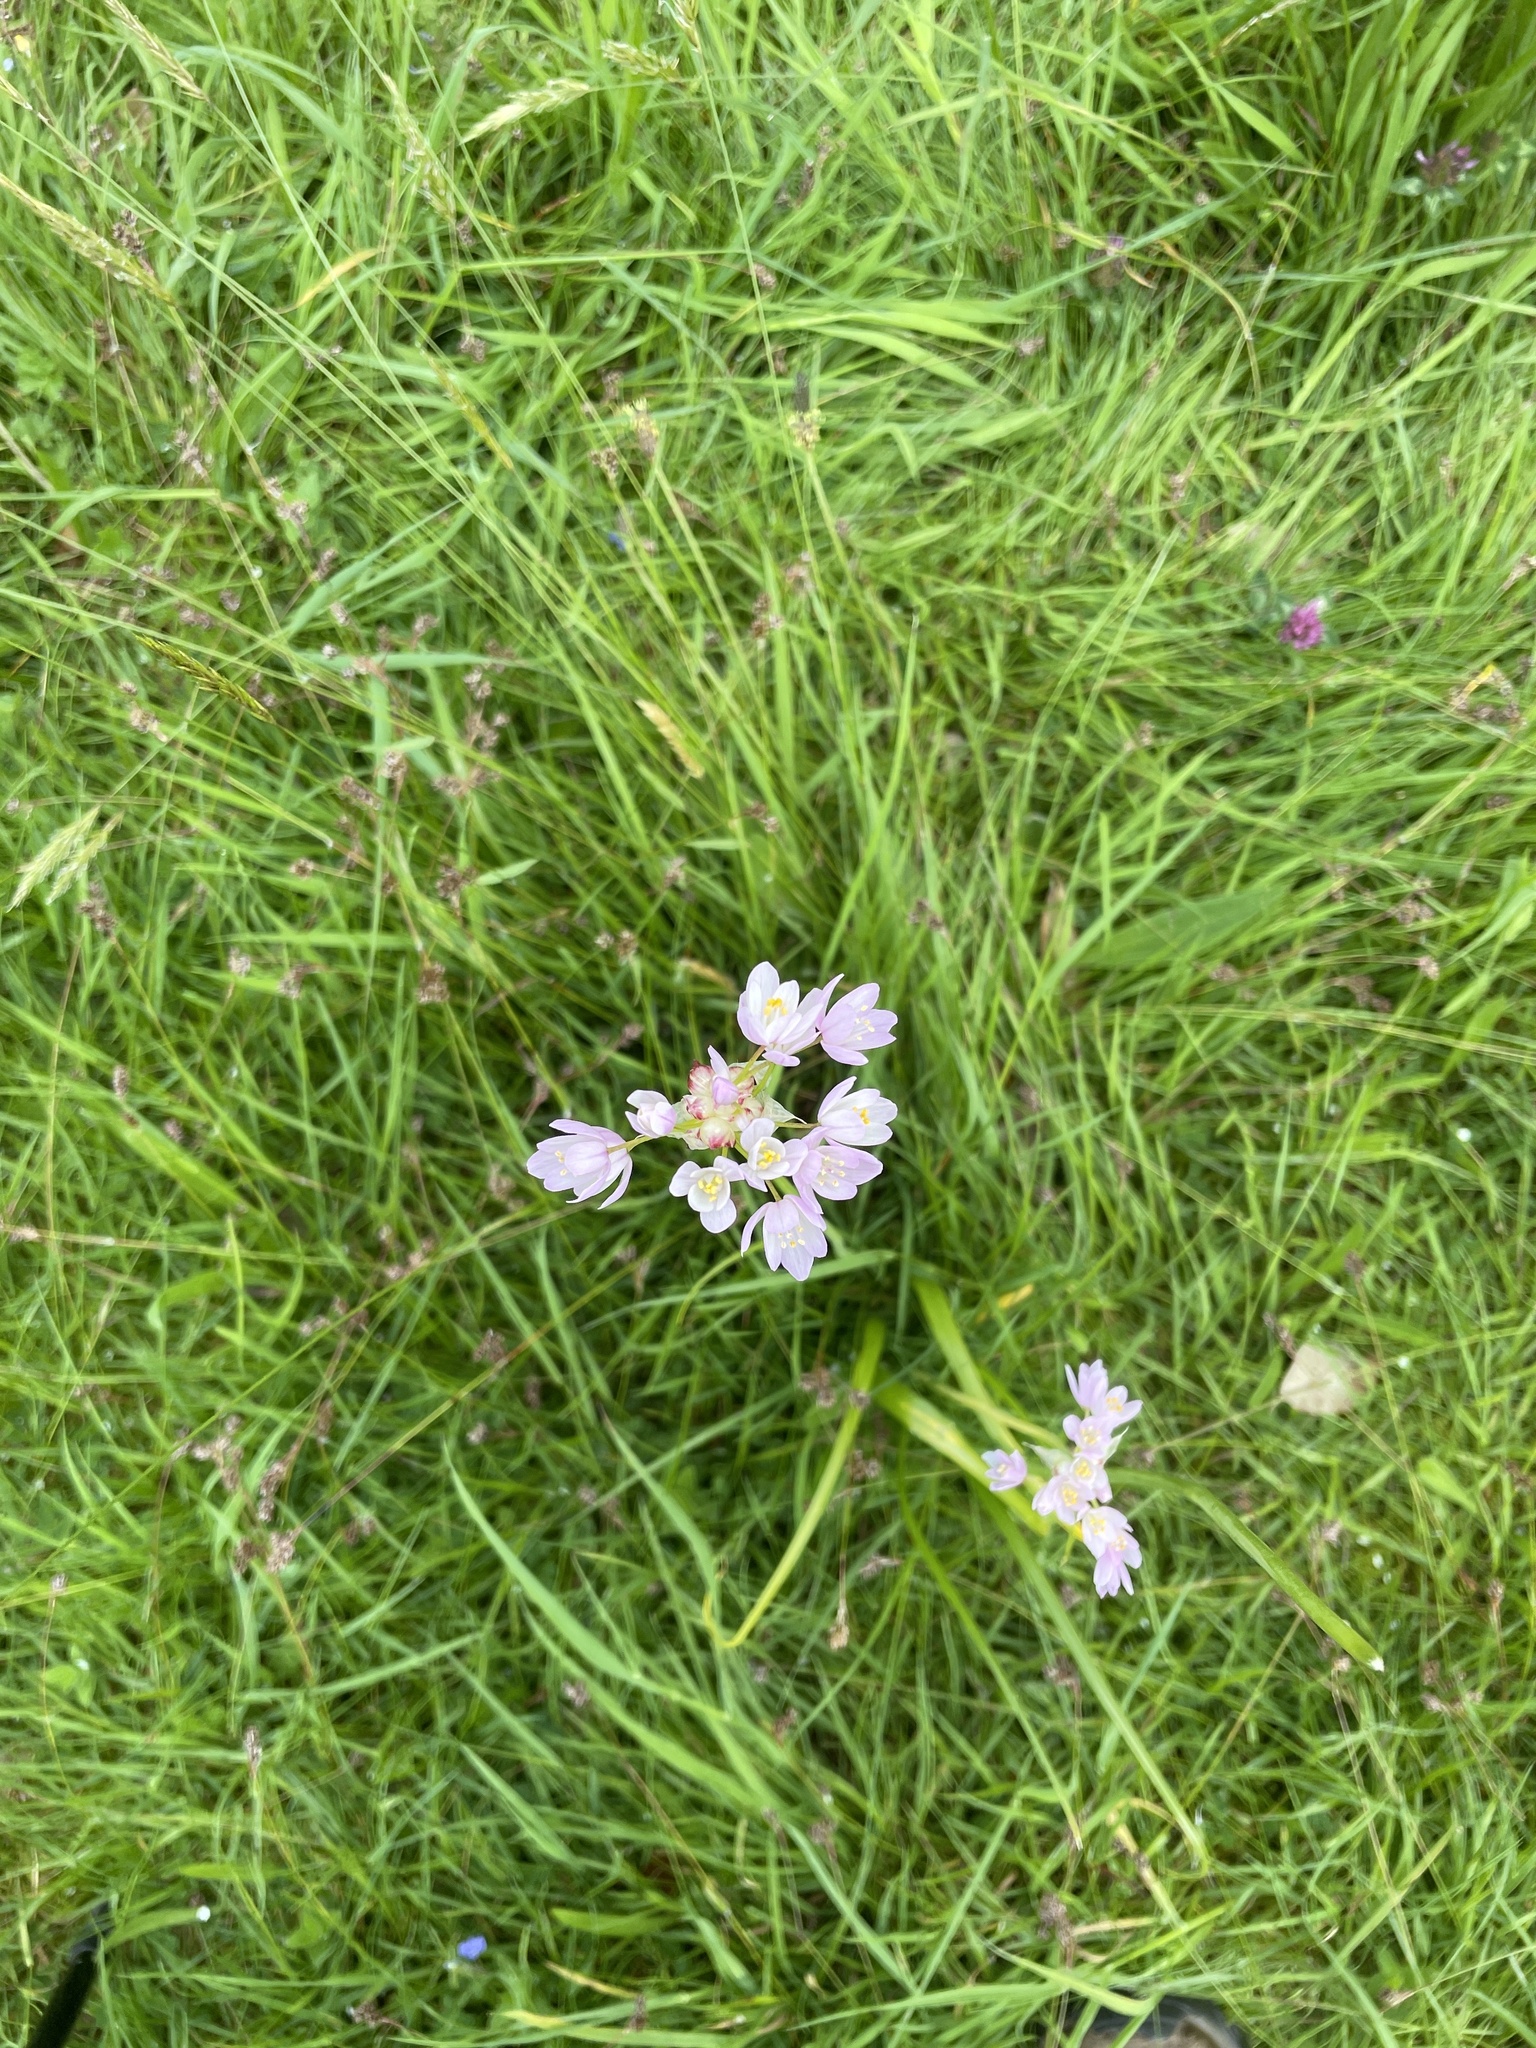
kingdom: Plantae
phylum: Tracheophyta
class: Liliopsida
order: Asparagales
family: Amaryllidaceae
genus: Allium
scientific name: Allium roseum
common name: Rosy garlic
